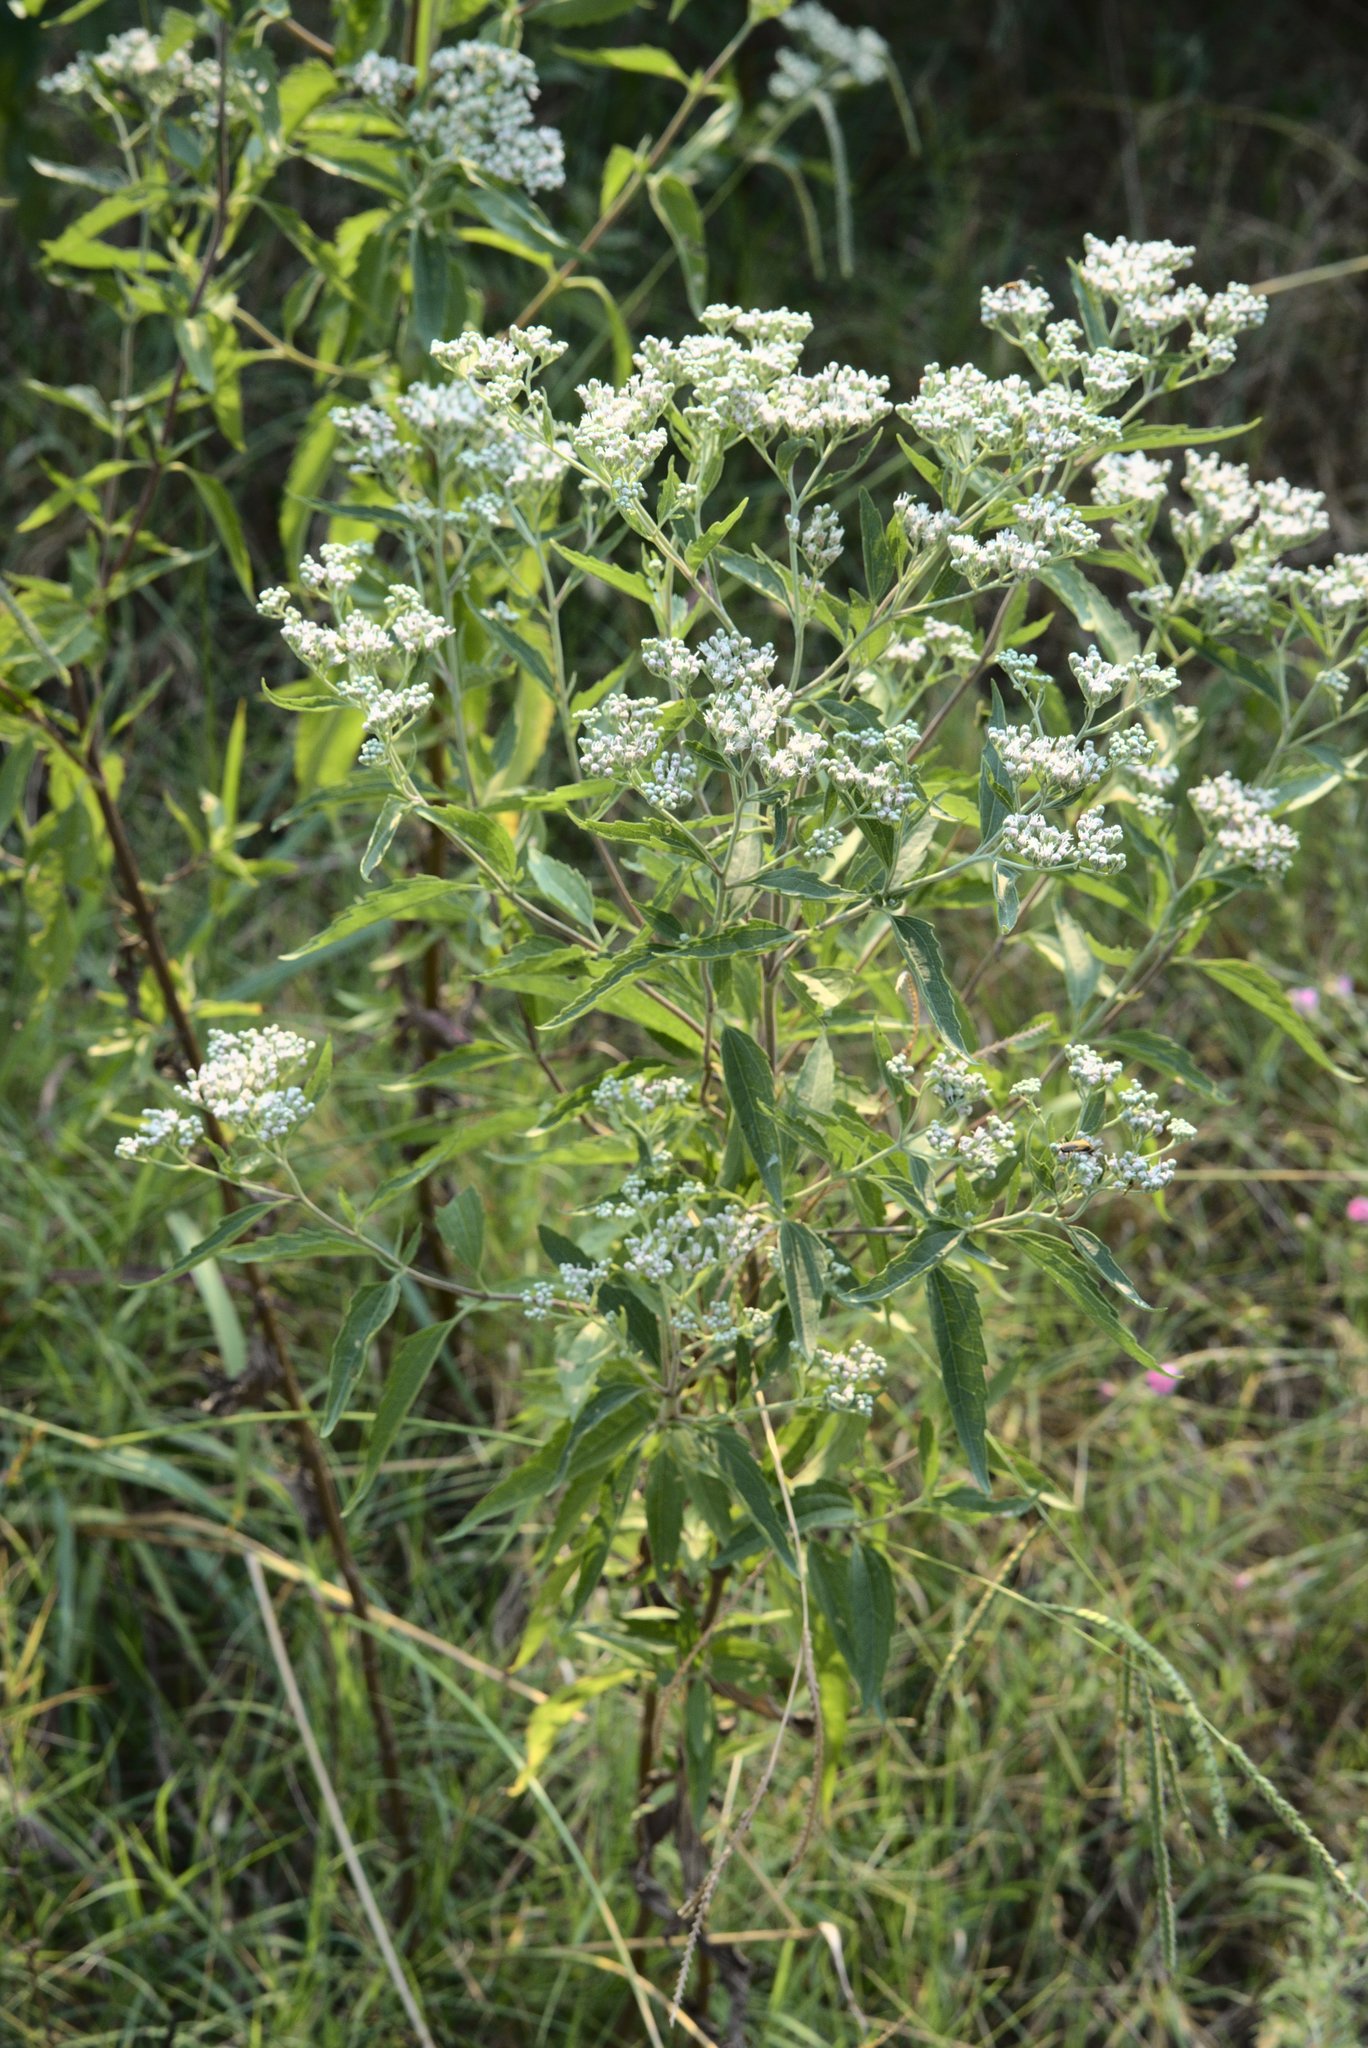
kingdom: Plantae
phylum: Tracheophyta
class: Magnoliopsida
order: Asterales
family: Asteraceae
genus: Eupatorium
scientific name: Eupatorium serotinum
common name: Late boneset
